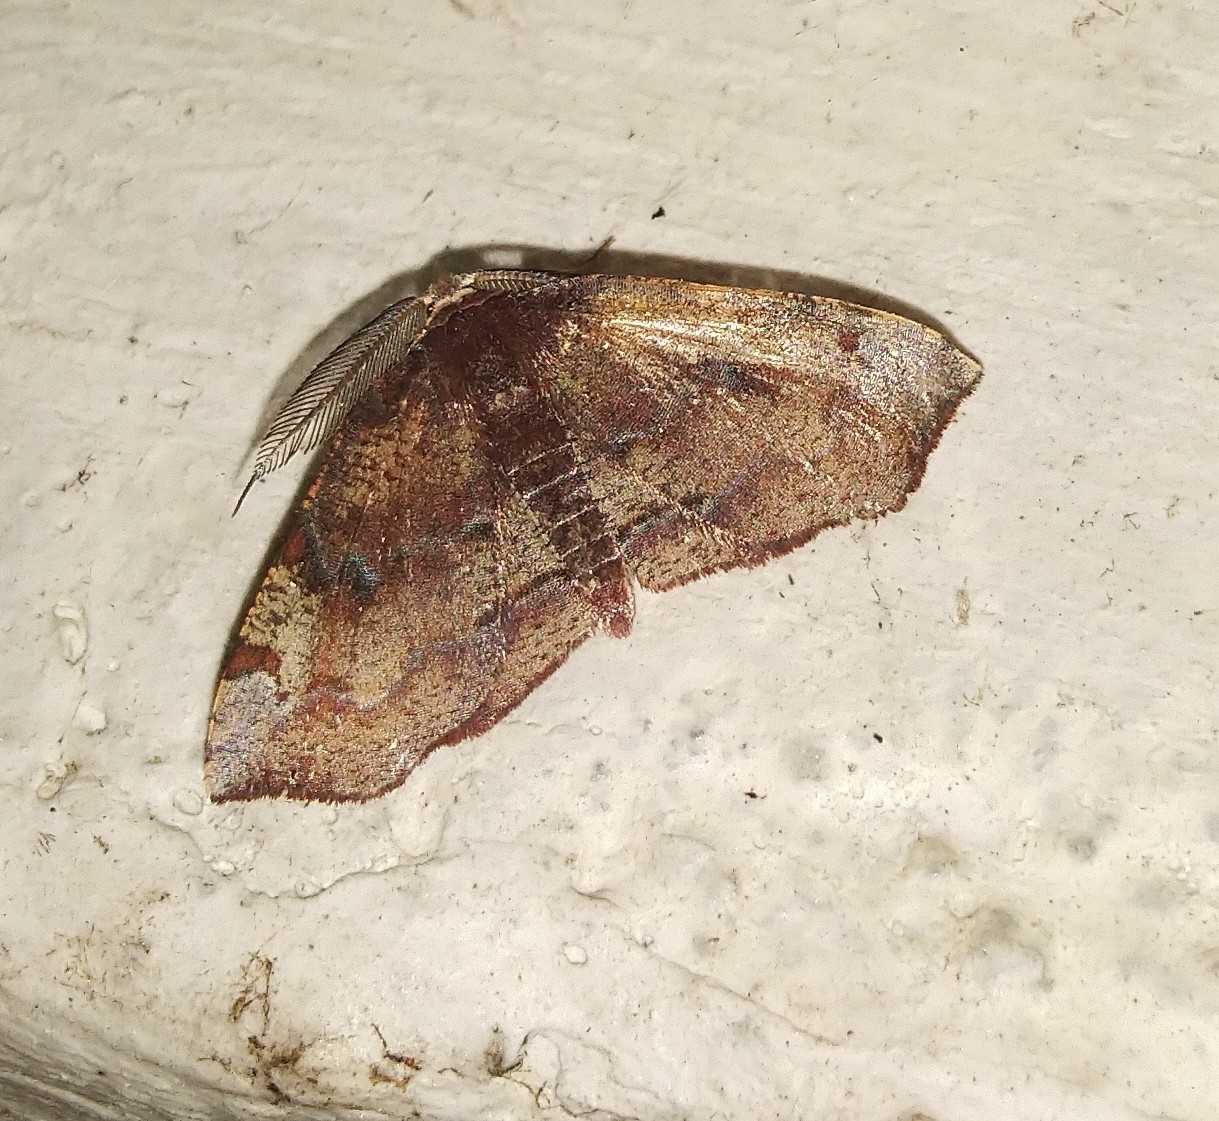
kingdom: Animalia
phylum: Arthropoda
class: Insecta
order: Lepidoptera
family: Geometridae
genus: Achrosis
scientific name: Achrosis rondelaria
